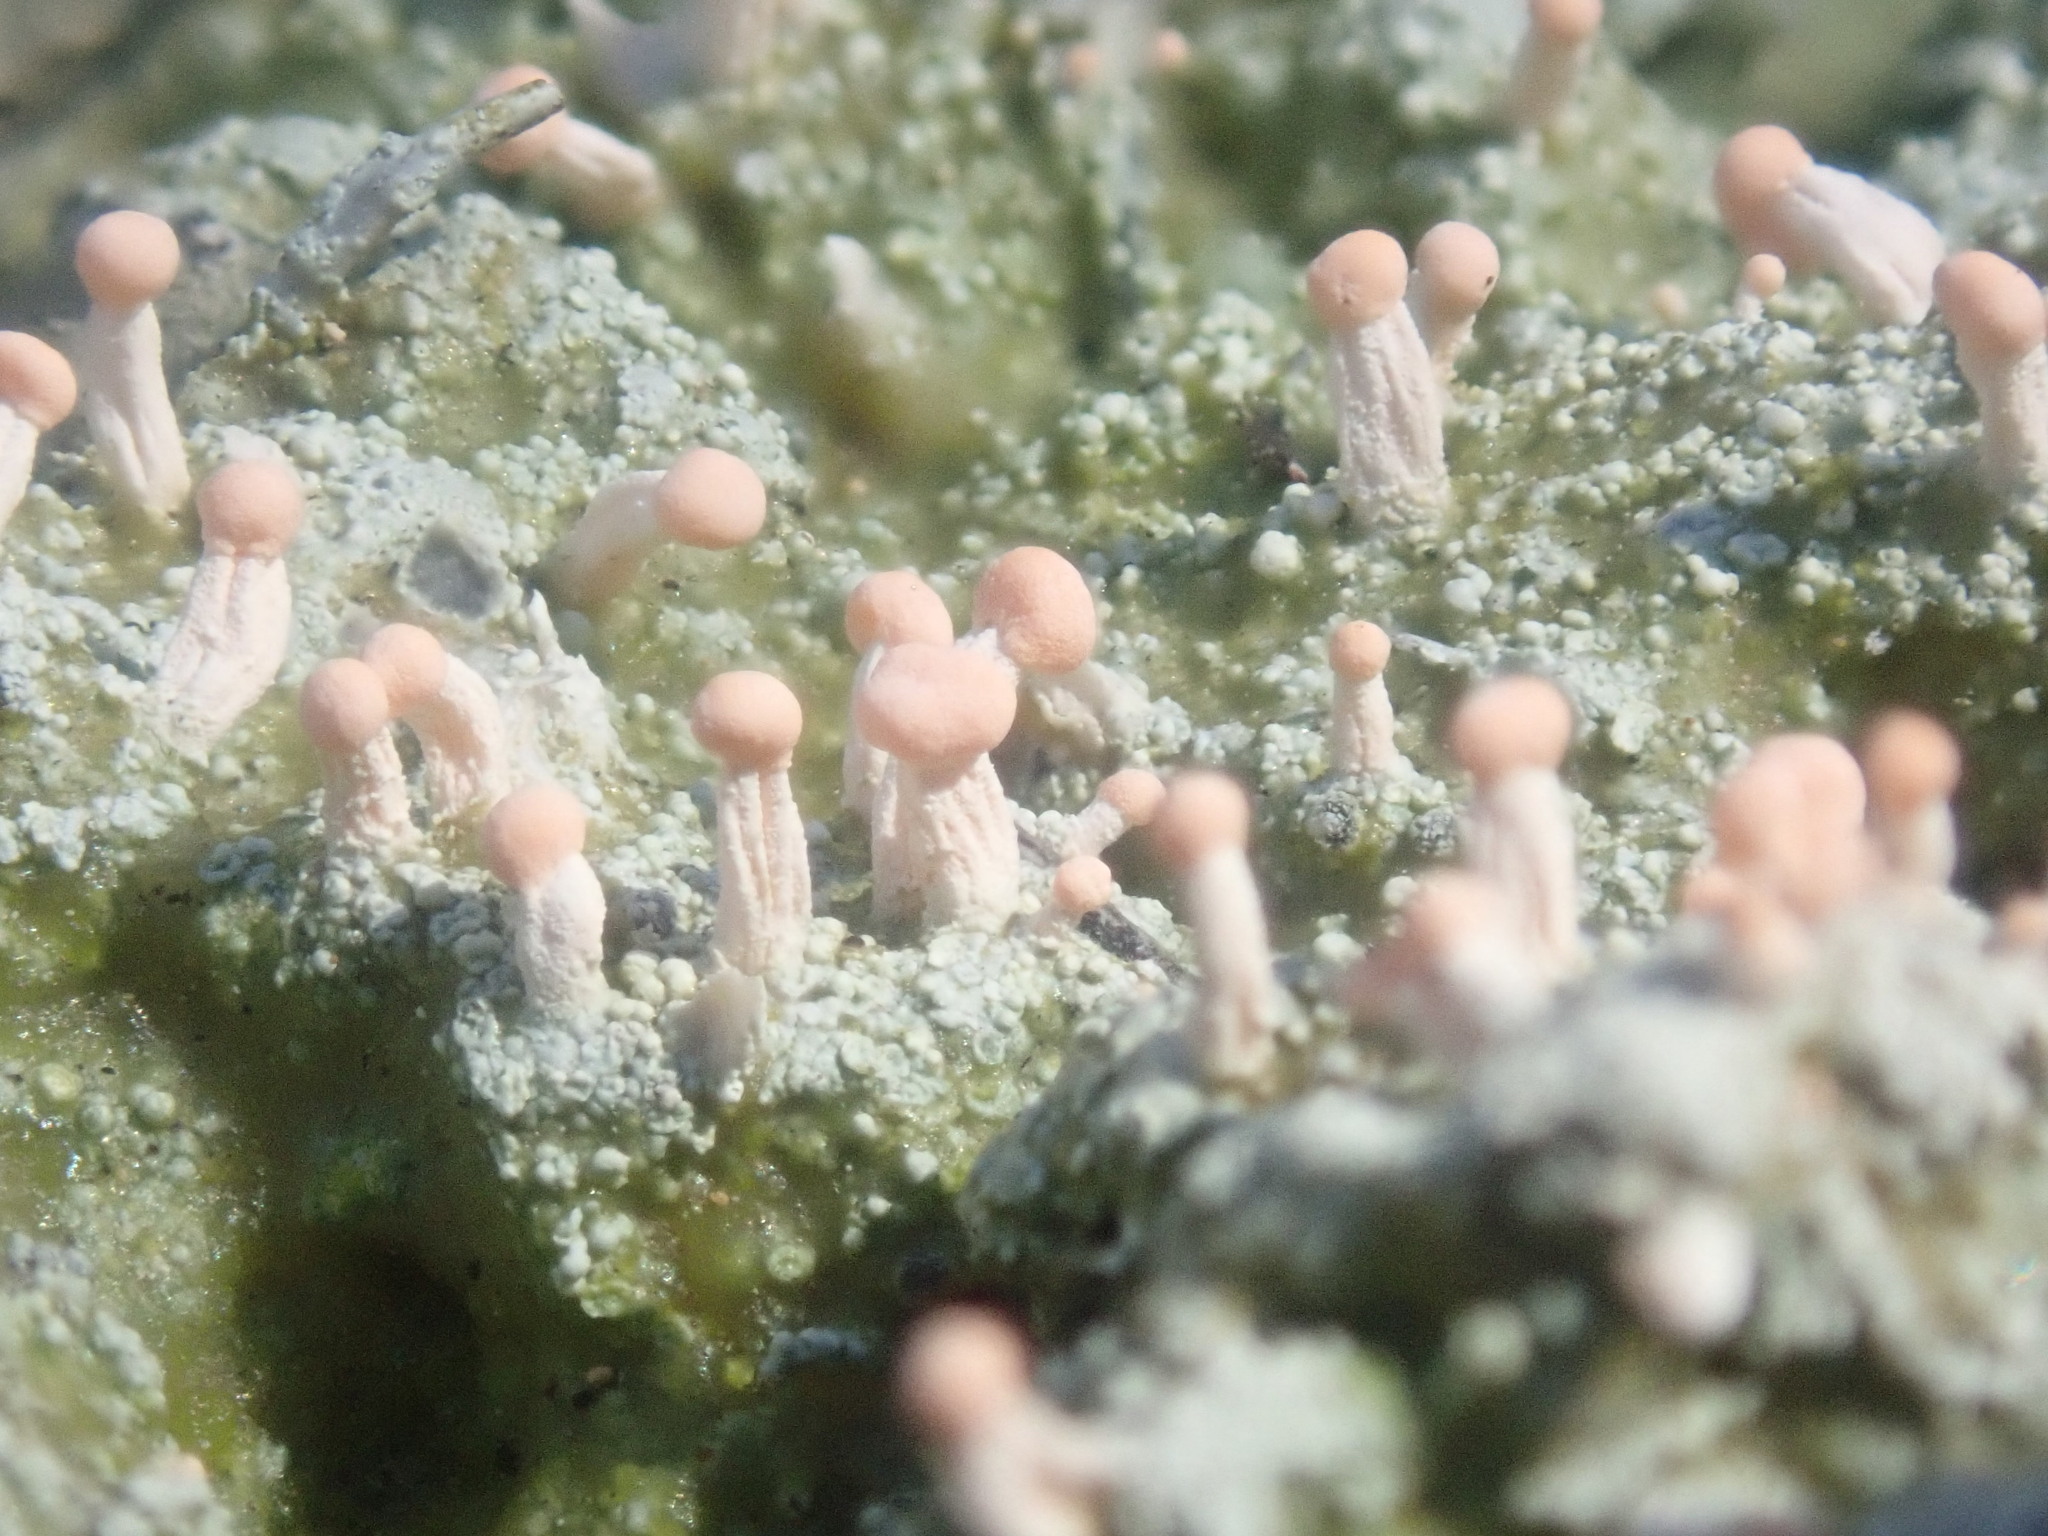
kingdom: Fungi
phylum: Ascomycota
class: Lecanoromycetes
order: Pertusariales
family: Icmadophilaceae
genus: Dibaeis
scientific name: Dibaeis baeomyces
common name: Pink earth lichen
